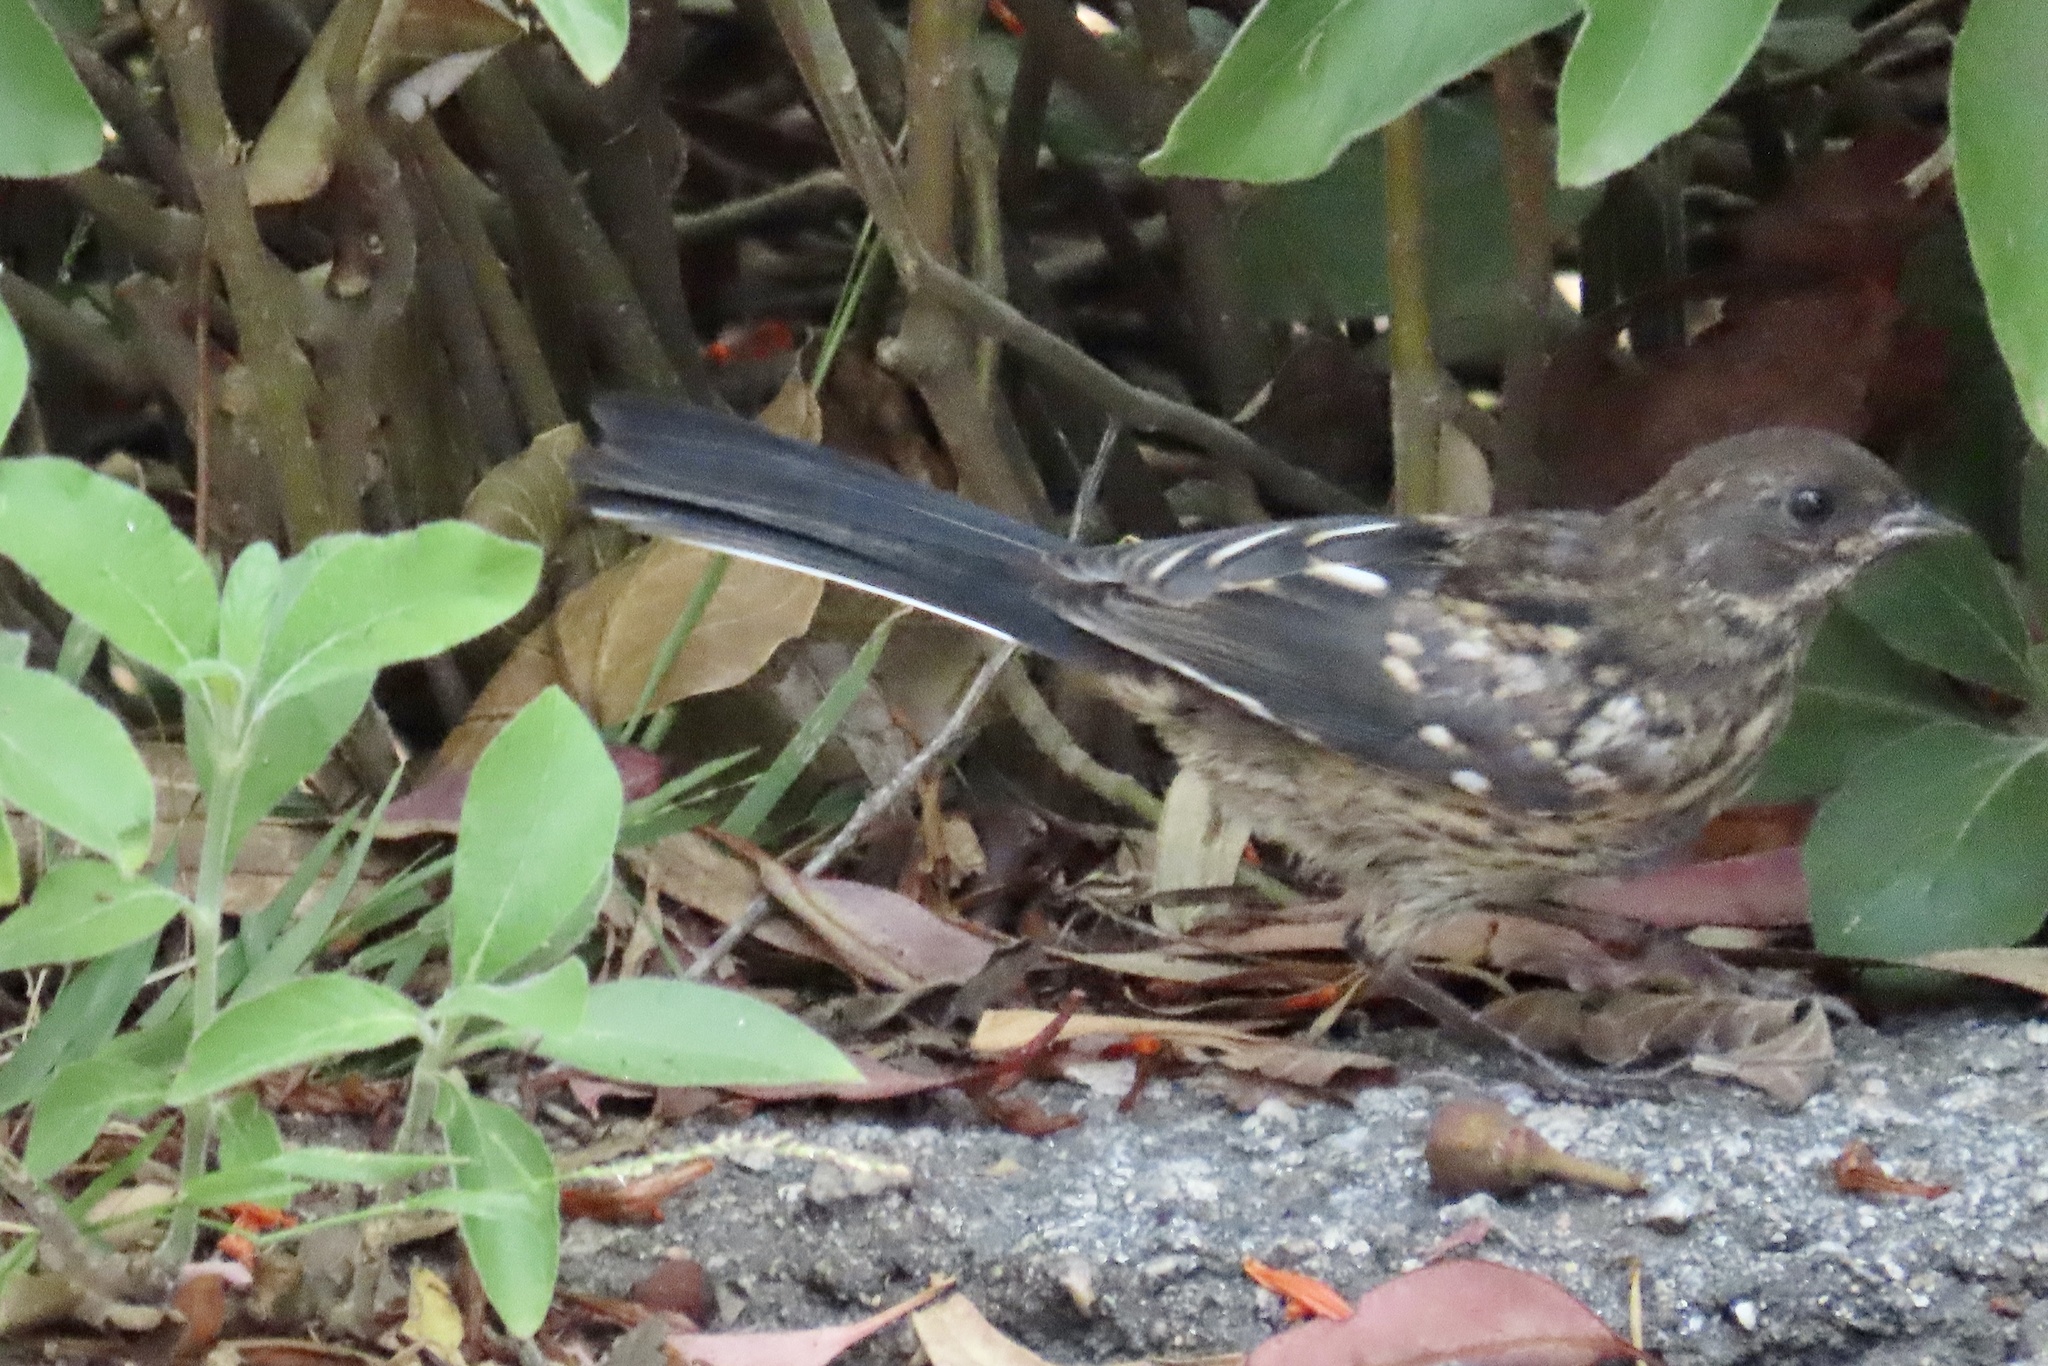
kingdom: Animalia
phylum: Chordata
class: Aves
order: Passeriformes
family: Passerellidae
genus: Pipilo
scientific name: Pipilo maculatus
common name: Spotted towhee
